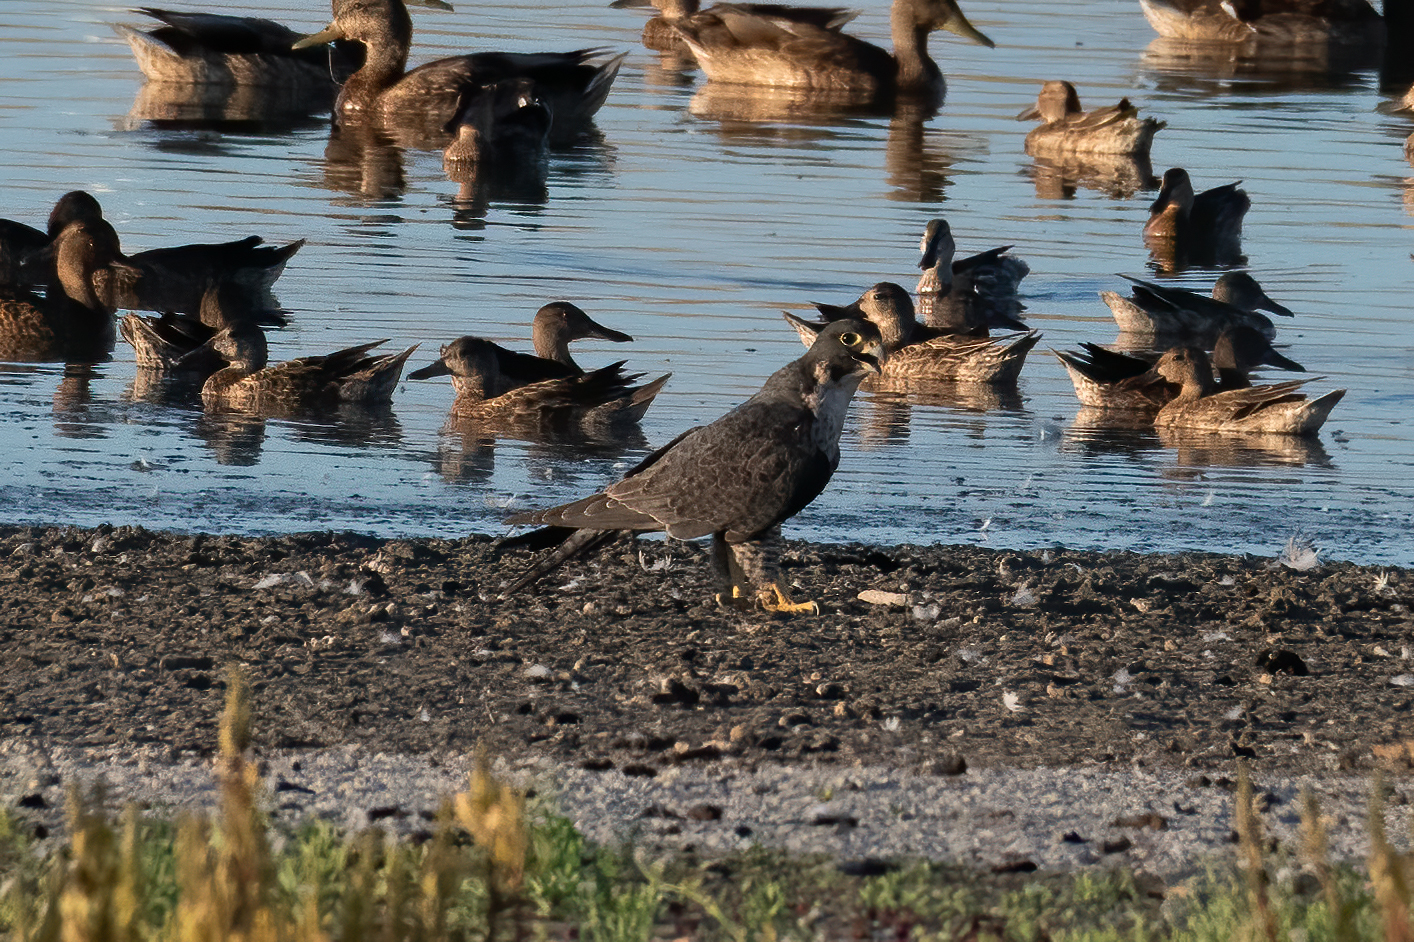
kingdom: Animalia
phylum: Chordata
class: Aves
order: Falconiformes
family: Falconidae
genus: Falco
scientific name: Falco peregrinus
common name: Peregrine falcon
